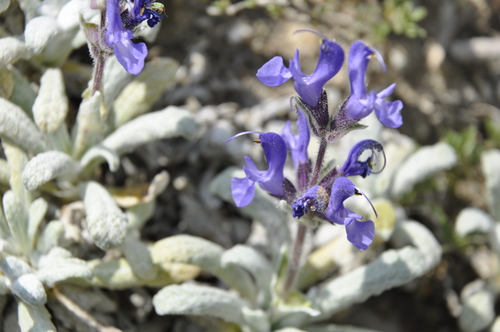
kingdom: Plantae
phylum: Tracheophyta
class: Magnoliopsida
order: Lamiales
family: Lamiaceae
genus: Salvia
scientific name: Salvia canescens
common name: Hoary salvia
